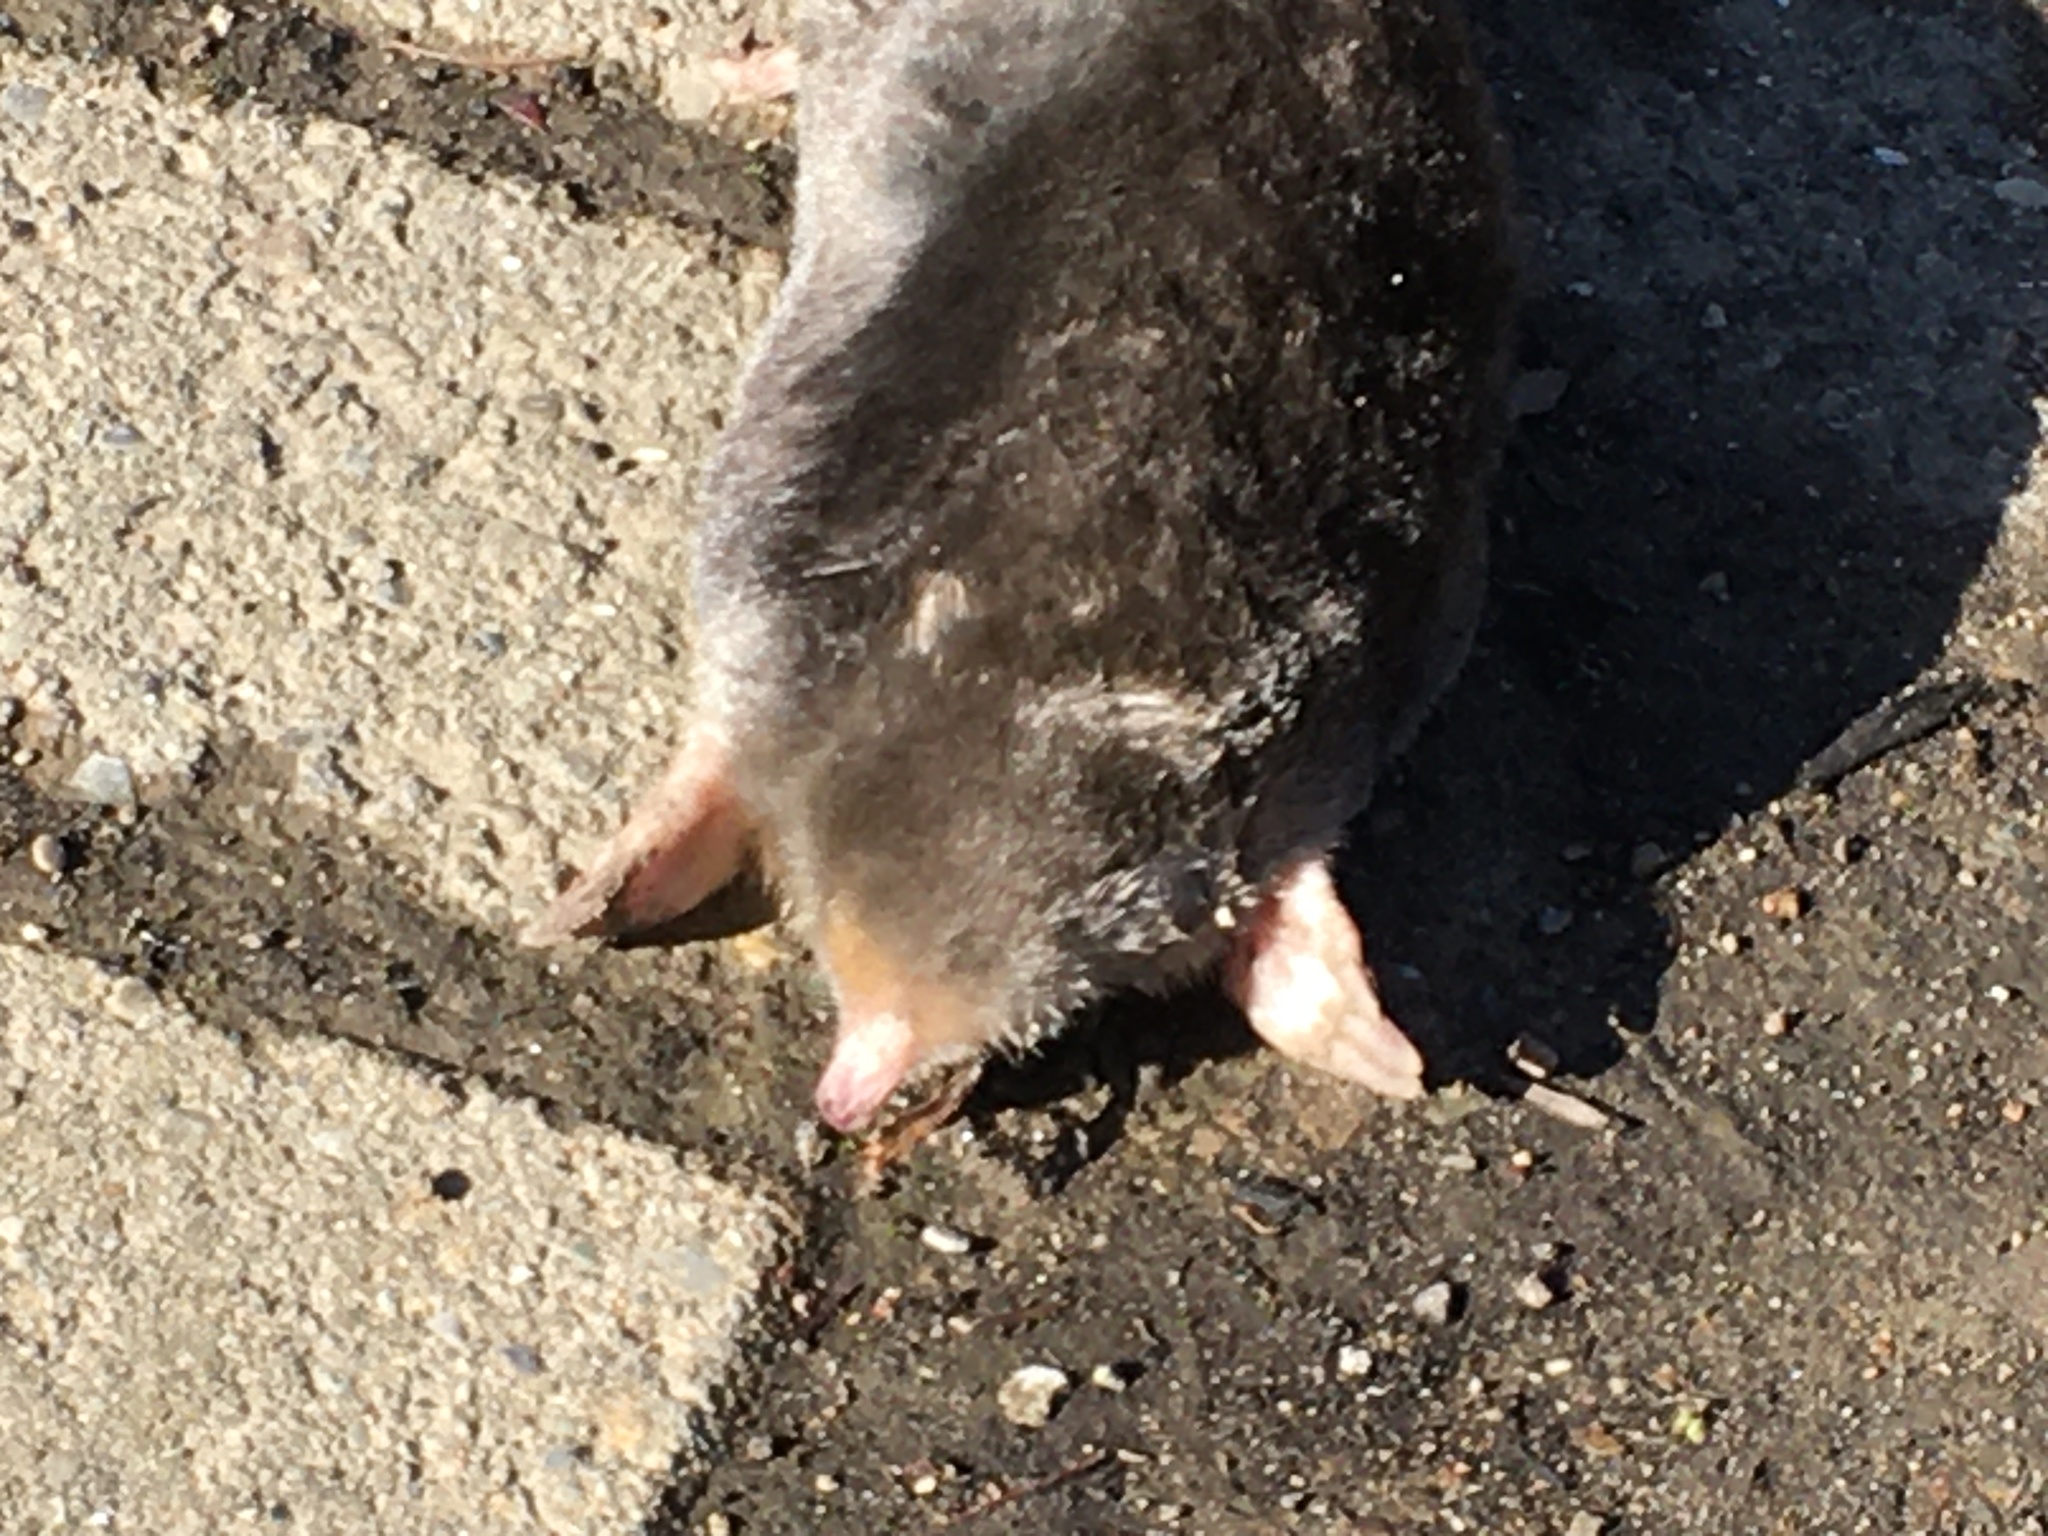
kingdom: Animalia
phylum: Chordata
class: Mammalia
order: Soricomorpha
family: Talpidae
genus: Scalopus
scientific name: Scalopus aquaticus
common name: Eastern mole
